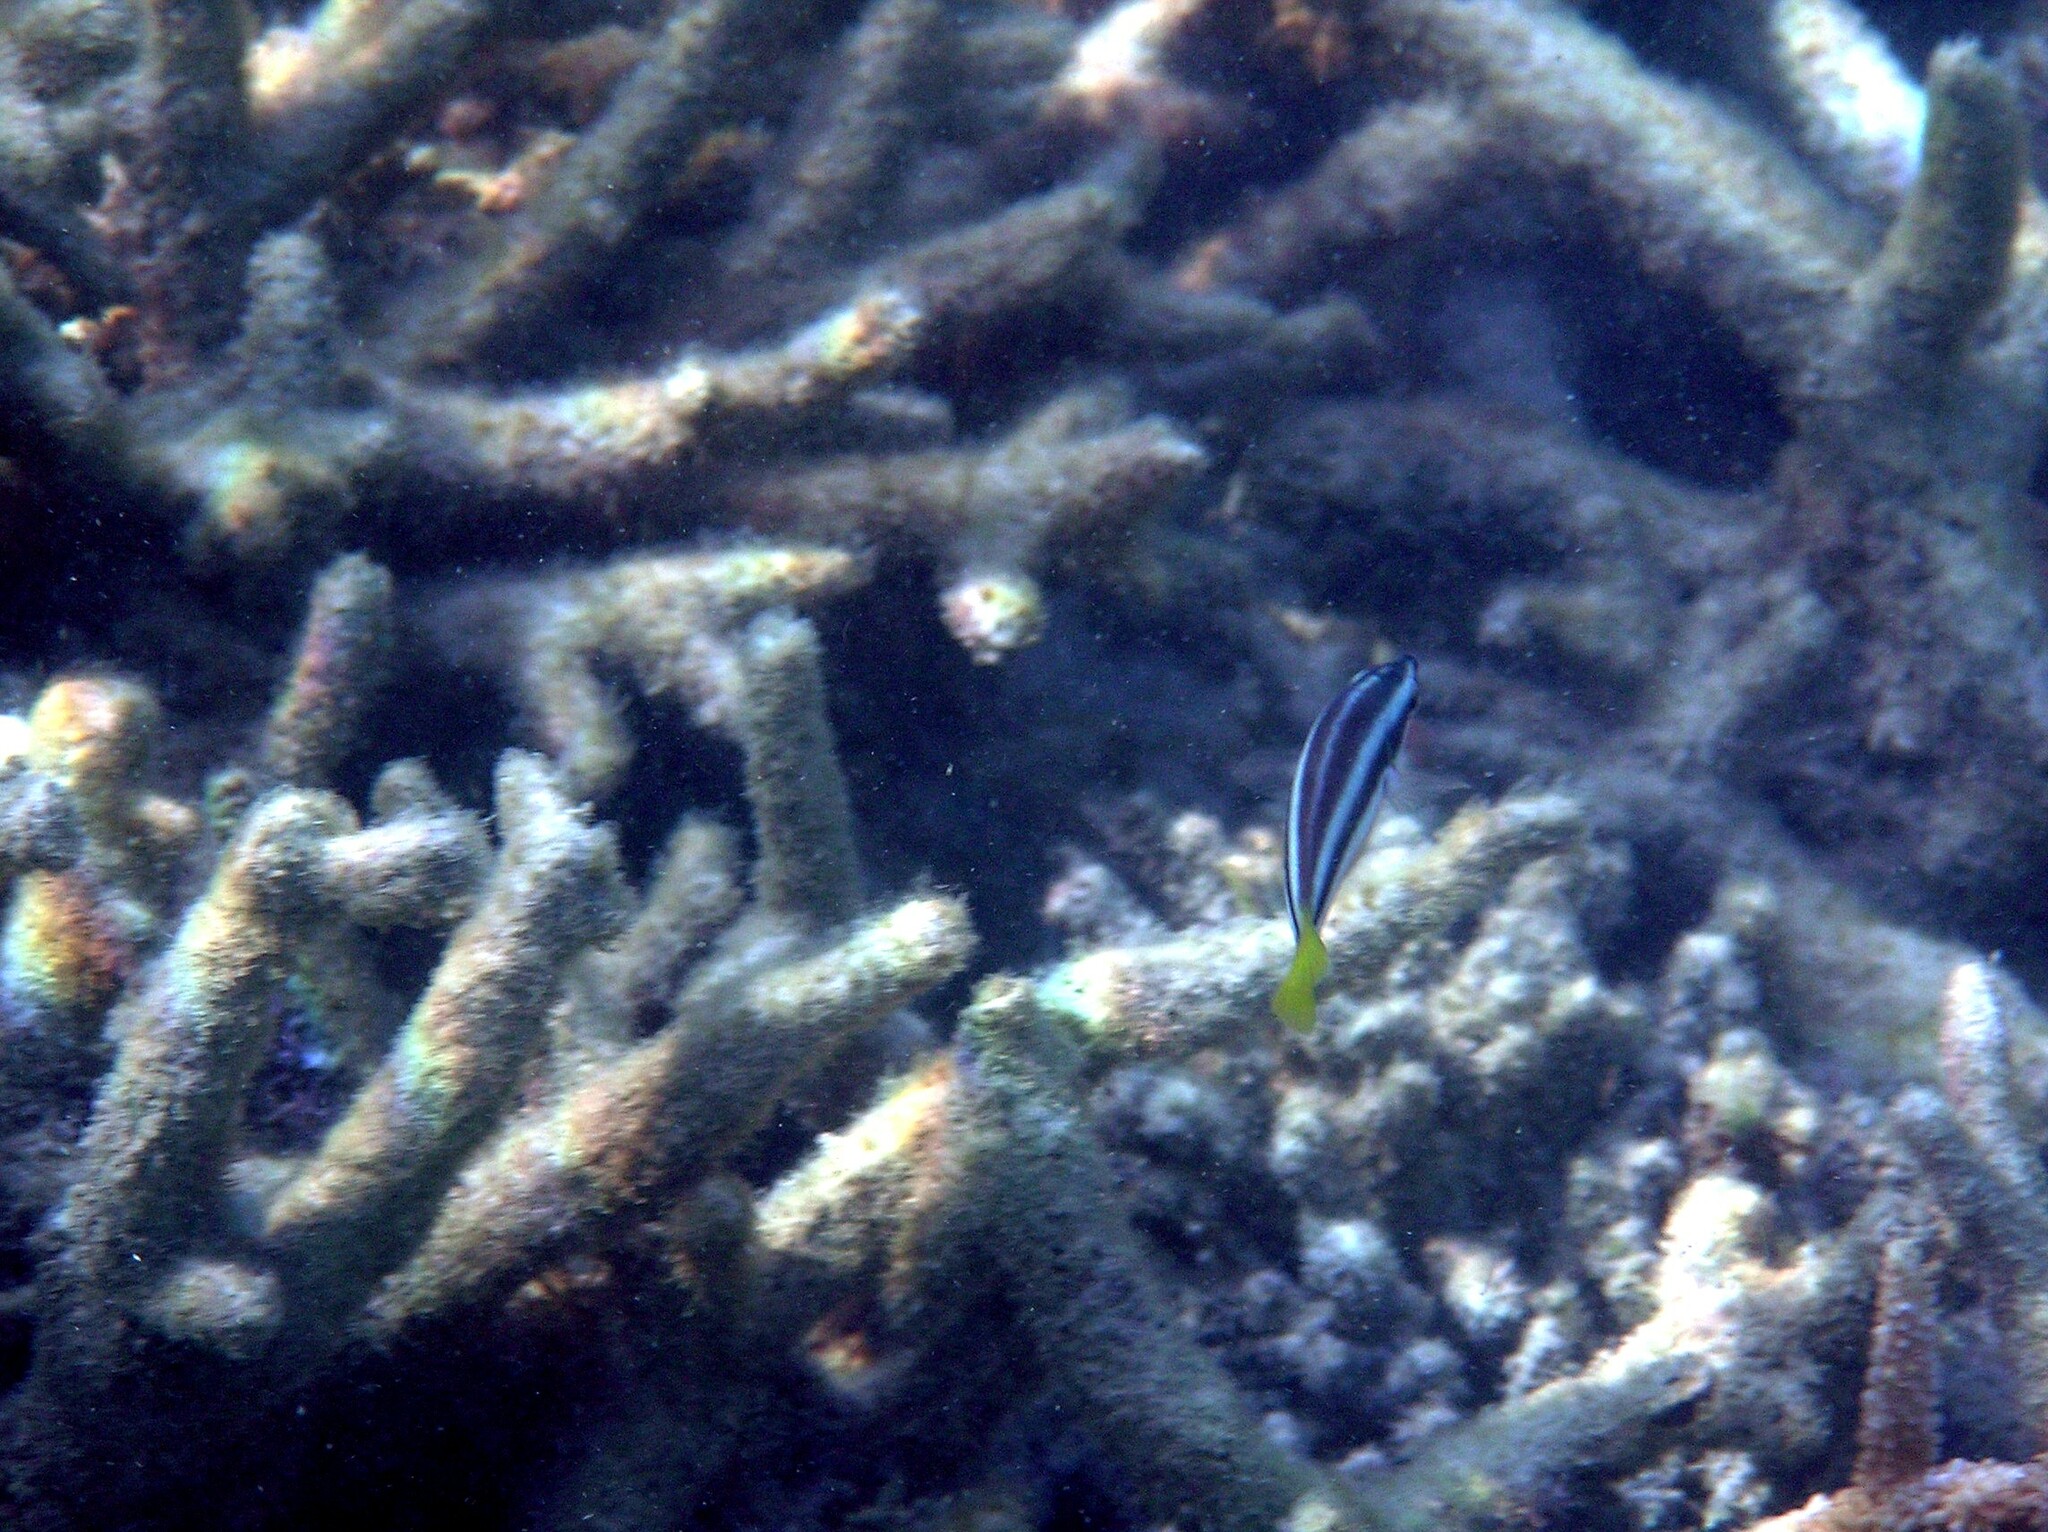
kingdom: Animalia
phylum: Chordata
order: Perciformes
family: Labridae
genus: Diproctacanthus
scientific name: Diproctacanthus xanthurus
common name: Wandering cleaner wrasse
